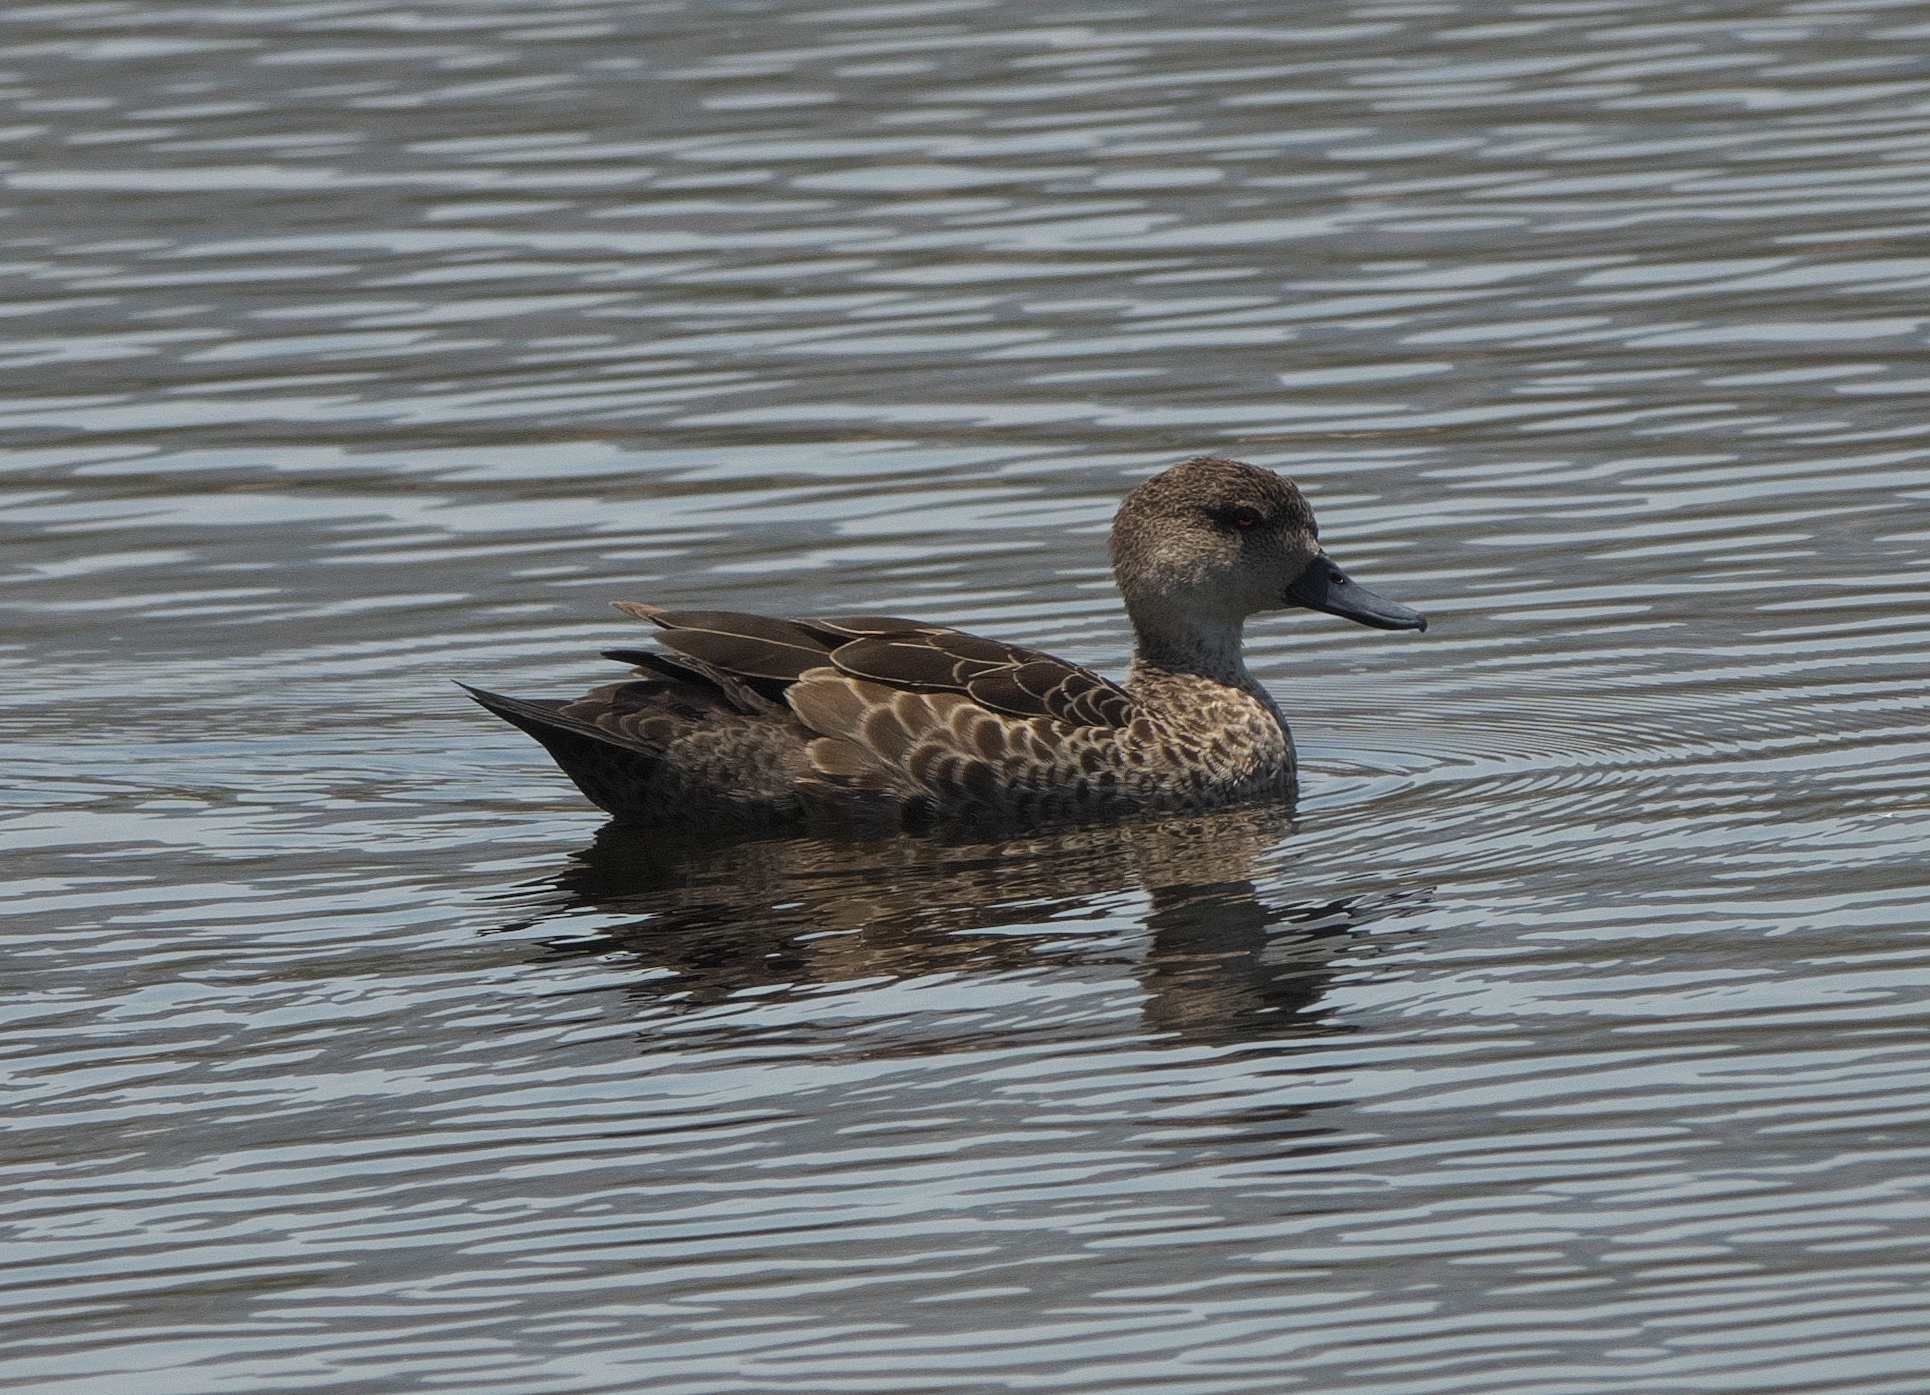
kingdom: Animalia
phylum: Chordata
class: Aves
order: Anseriformes
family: Anatidae
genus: Anas
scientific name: Anas gracilis
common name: Grey teal
